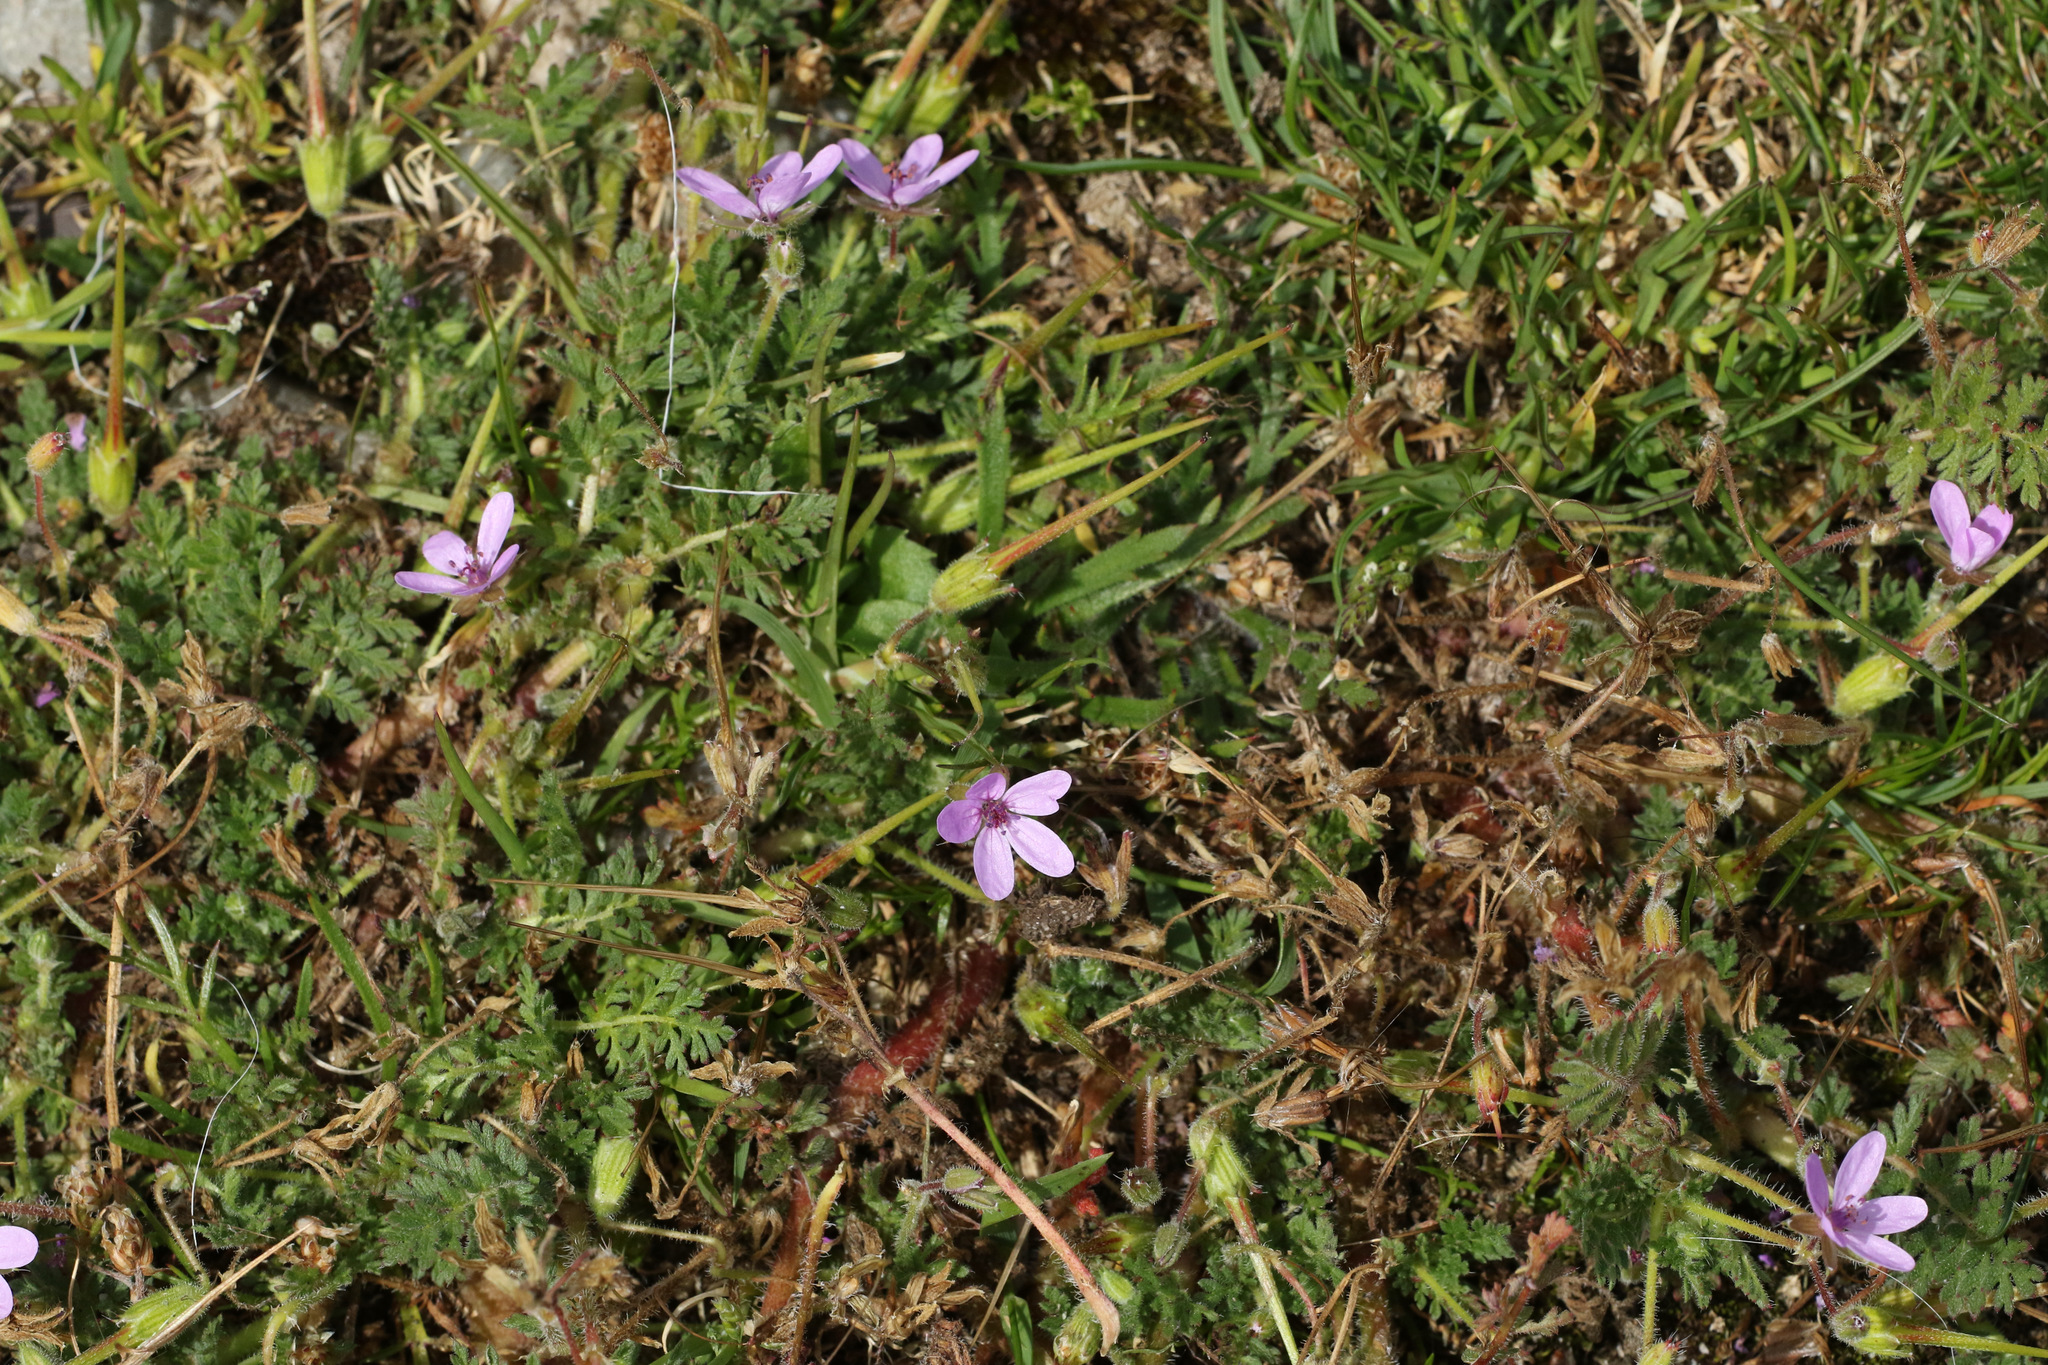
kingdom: Plantae
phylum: Tracheophyta
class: Magnoliopsida
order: Geraniales
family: Geraniaceae
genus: Erodium
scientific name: Erodium cicutarium
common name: Common stork's-bill
